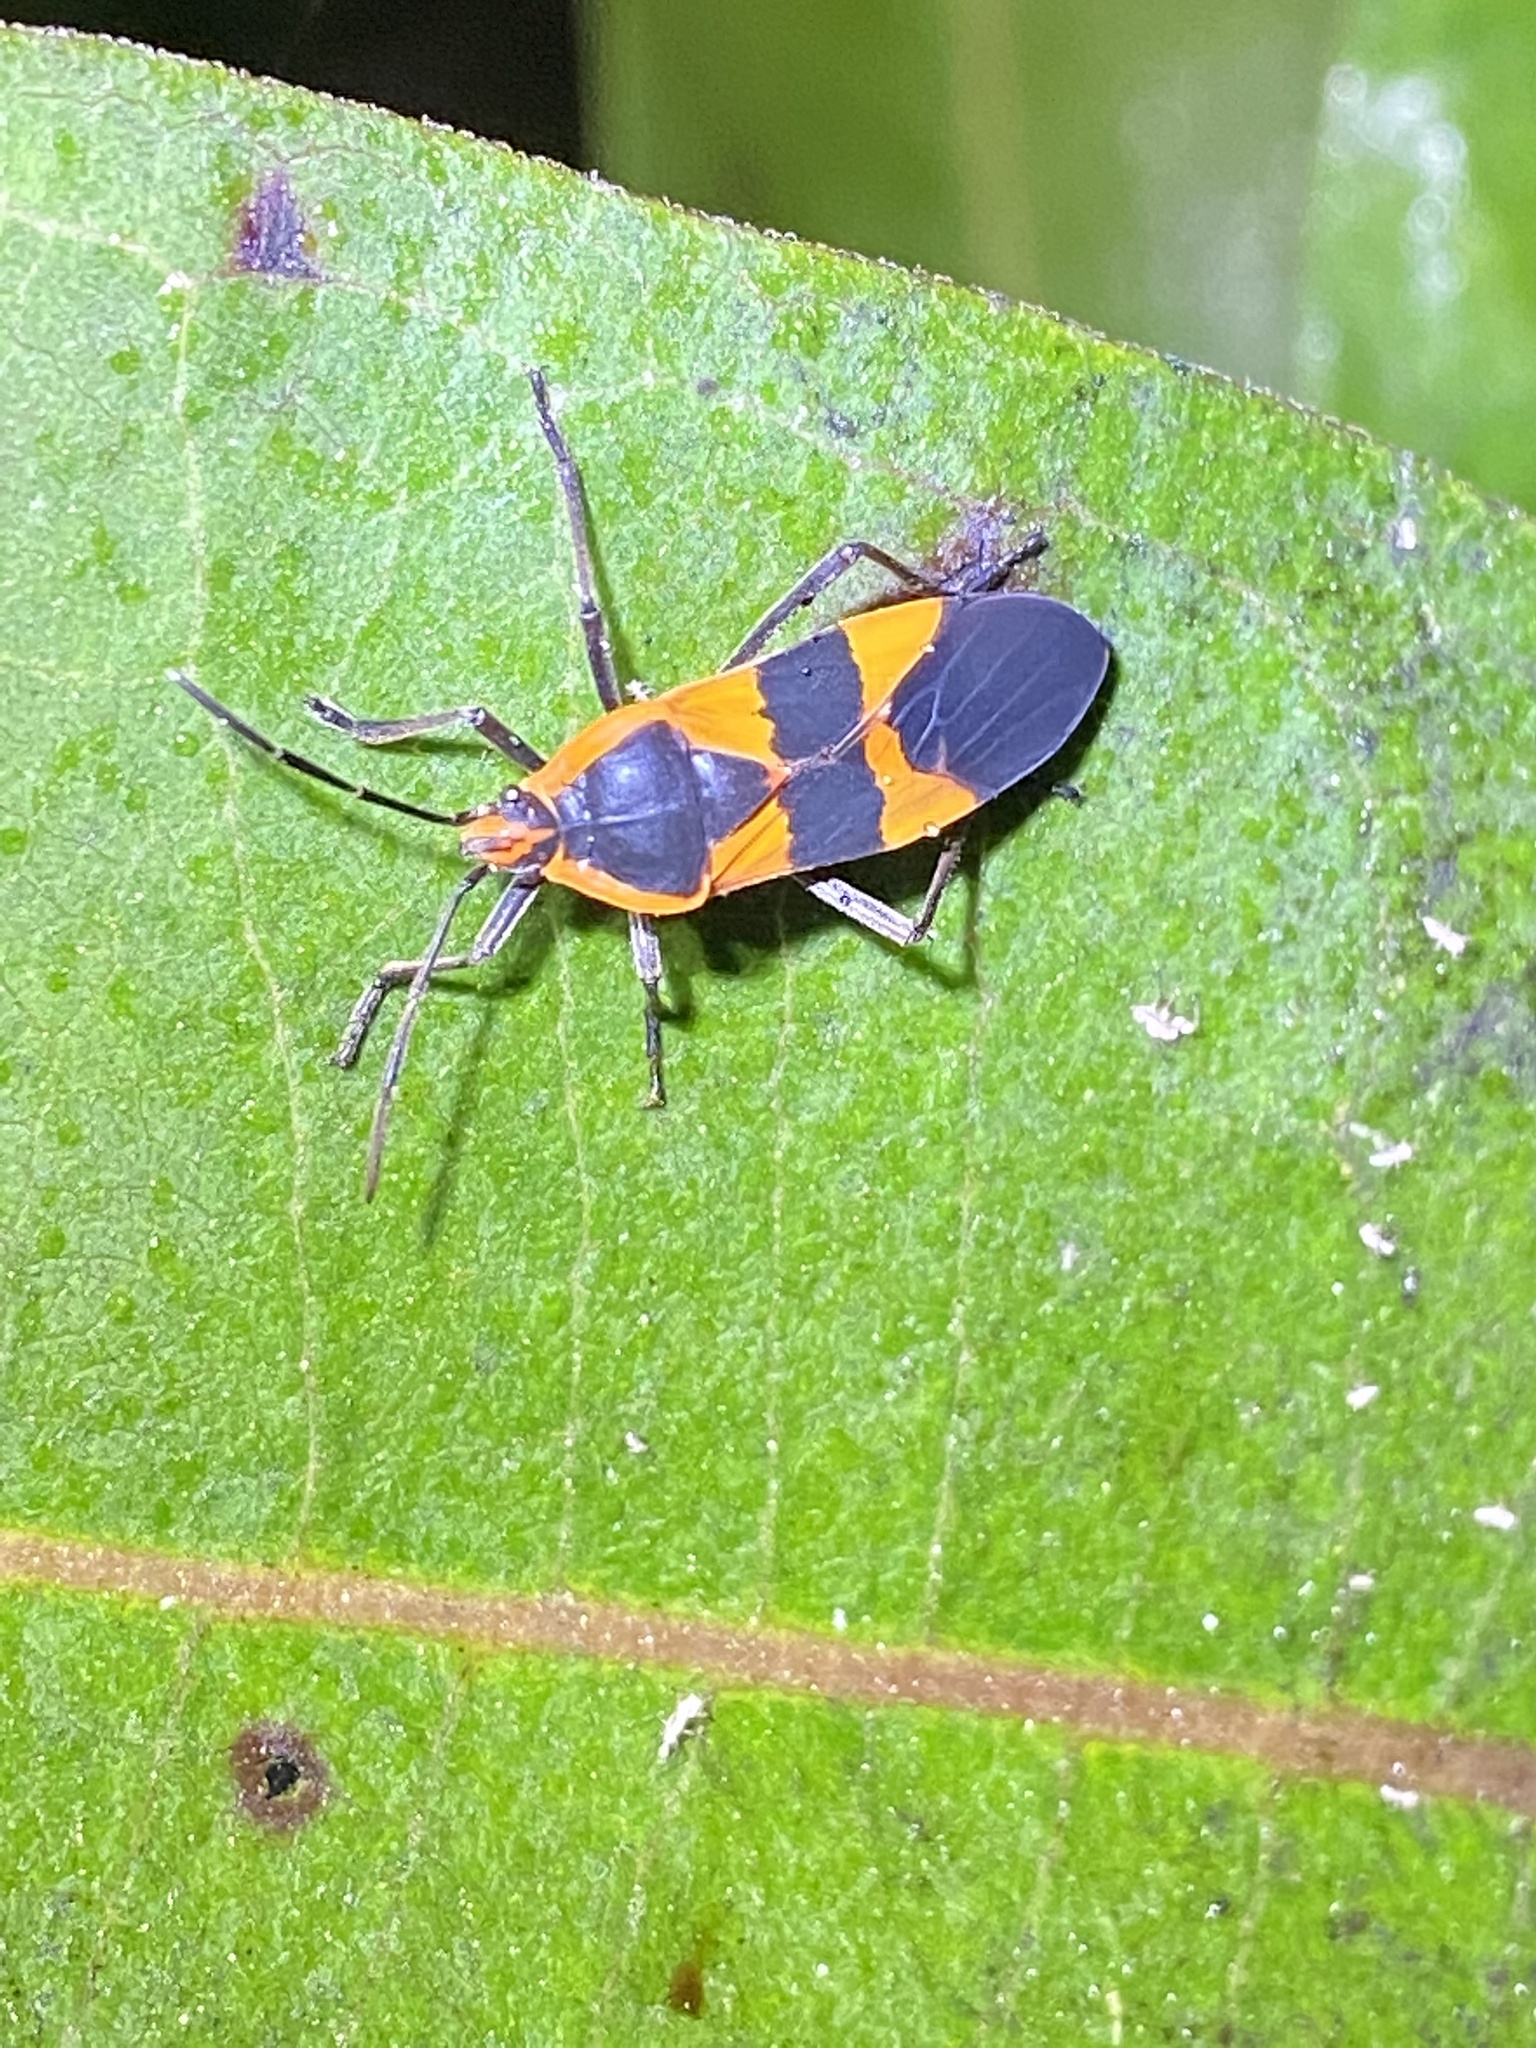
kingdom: Animalia
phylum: Arthropoda
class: Insecta
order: Hemiptera
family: Lygaeidae
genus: Oncopeltus
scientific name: Oncopeltus fasciatus
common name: Large milkweed bug
